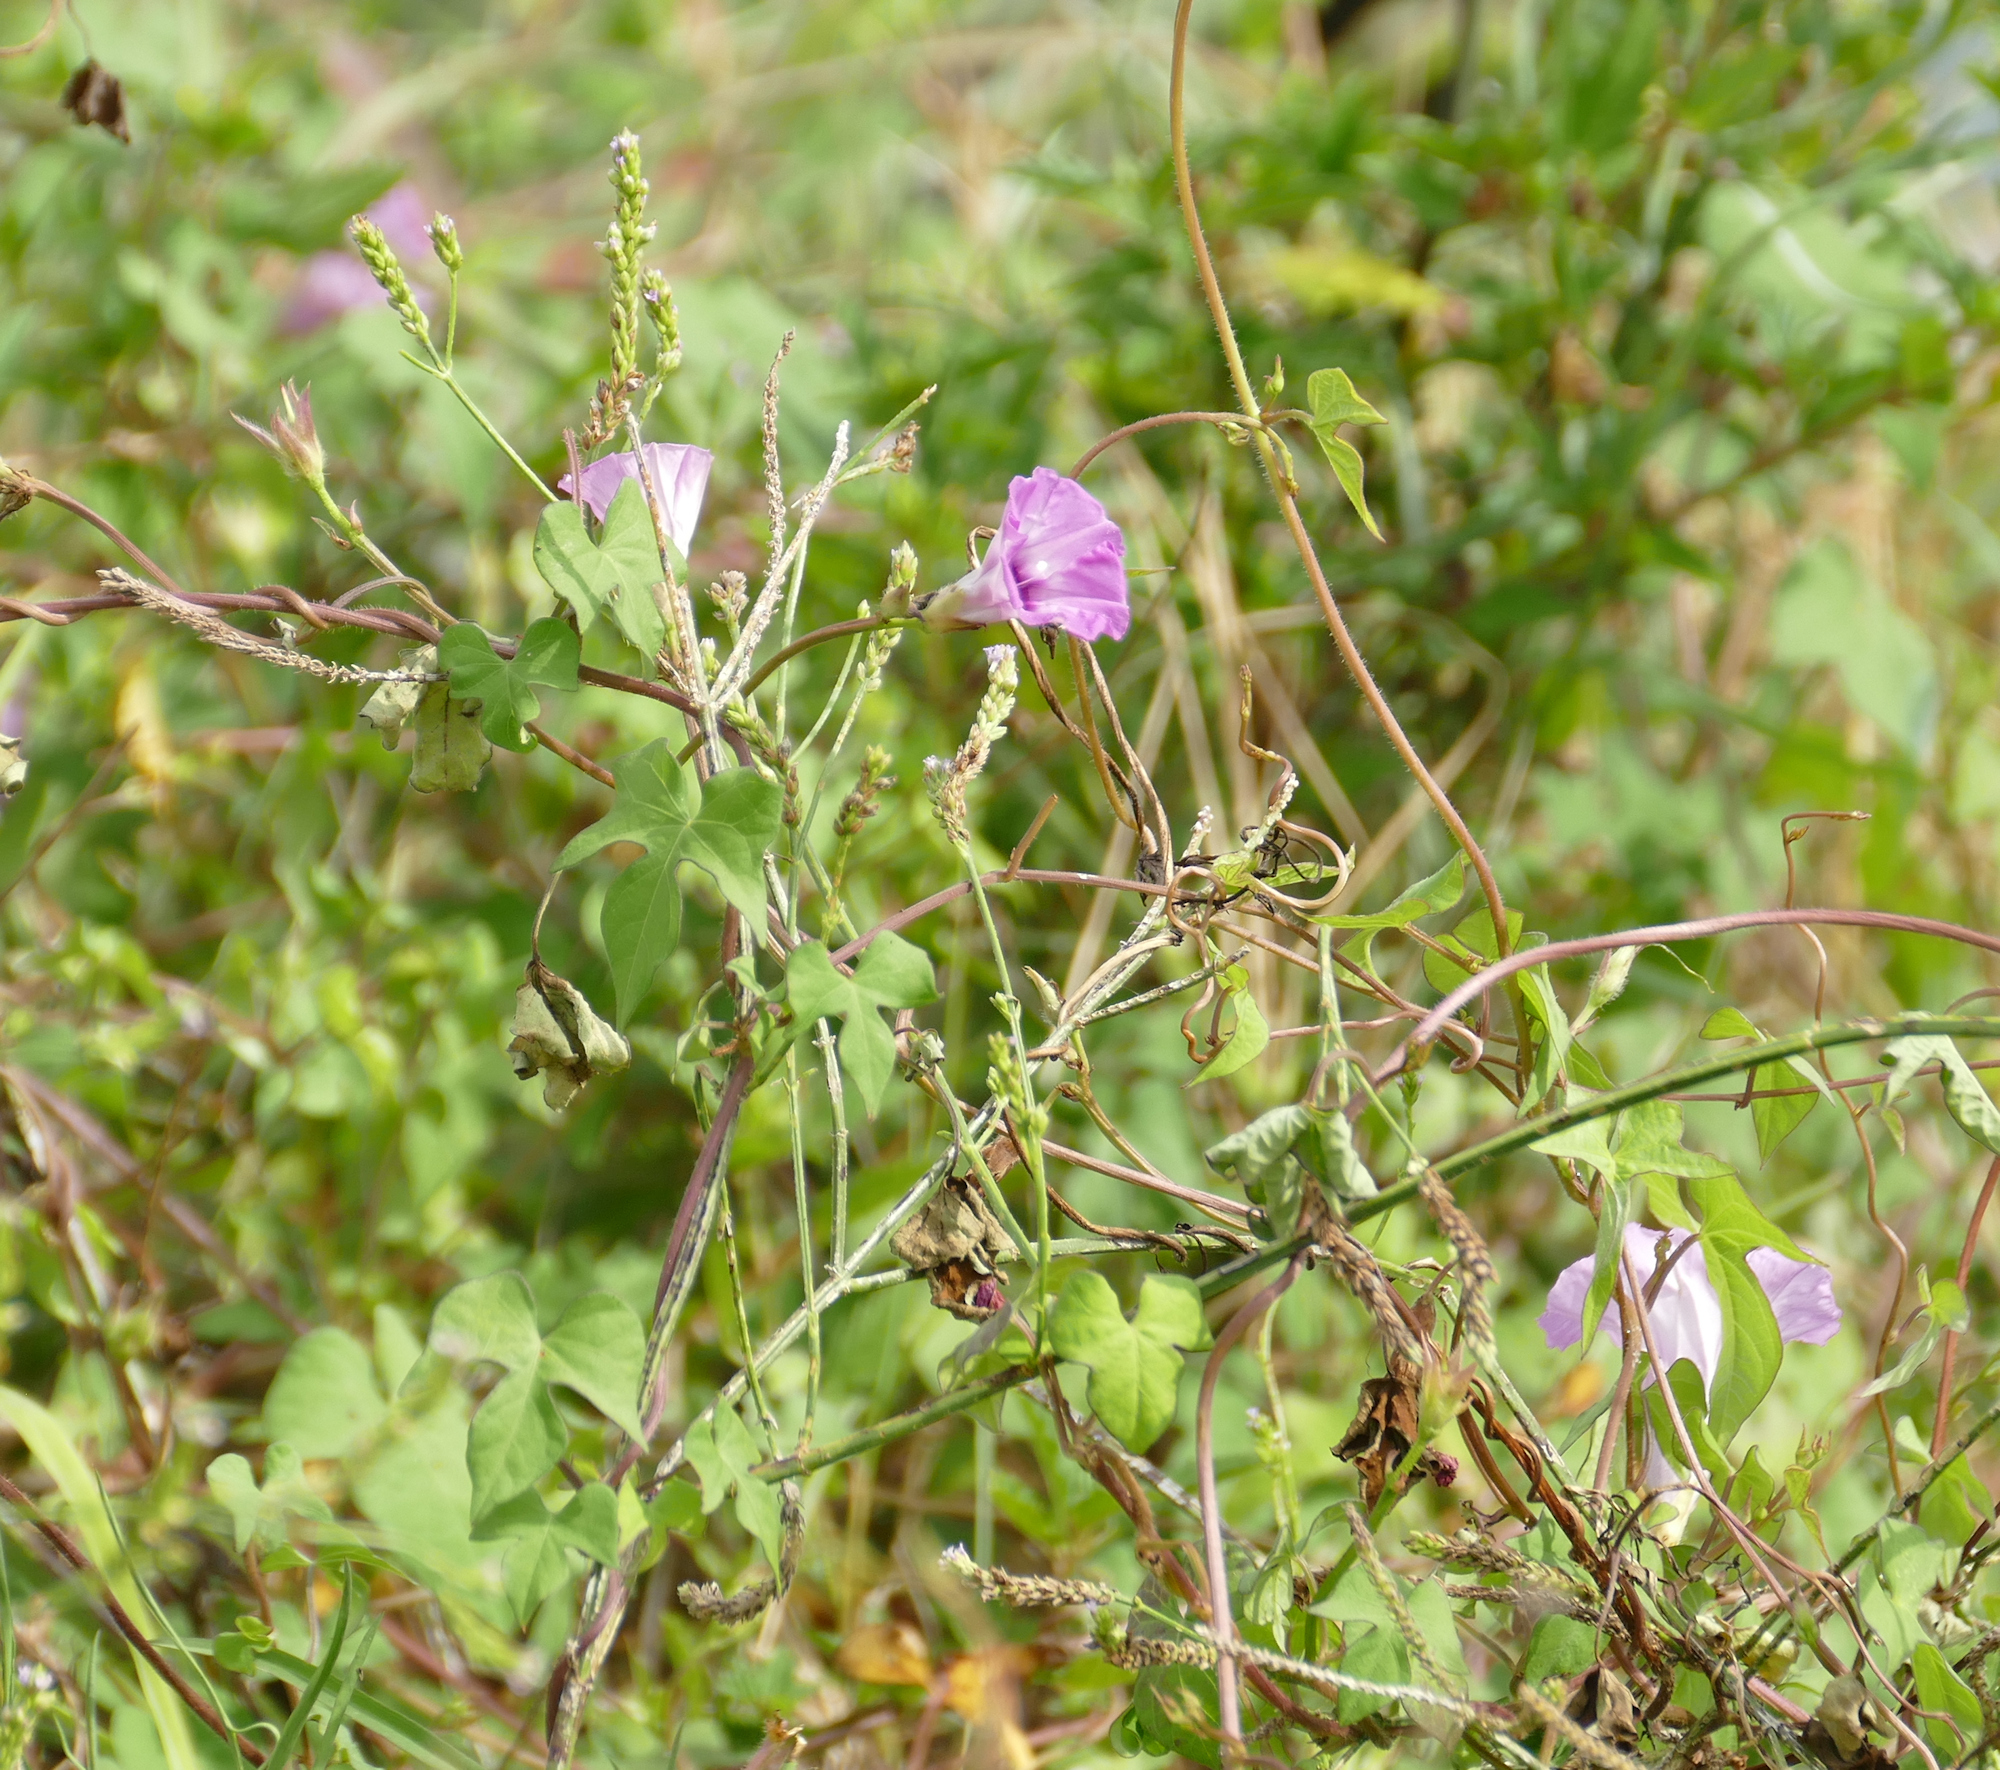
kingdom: Plantae
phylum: Tracheophyta
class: Magnoliopsida
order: Solanales
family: Convolvulaceae
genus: Ipomoea
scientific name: Ipomoea cordatotriloba
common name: Cotton morning glory
